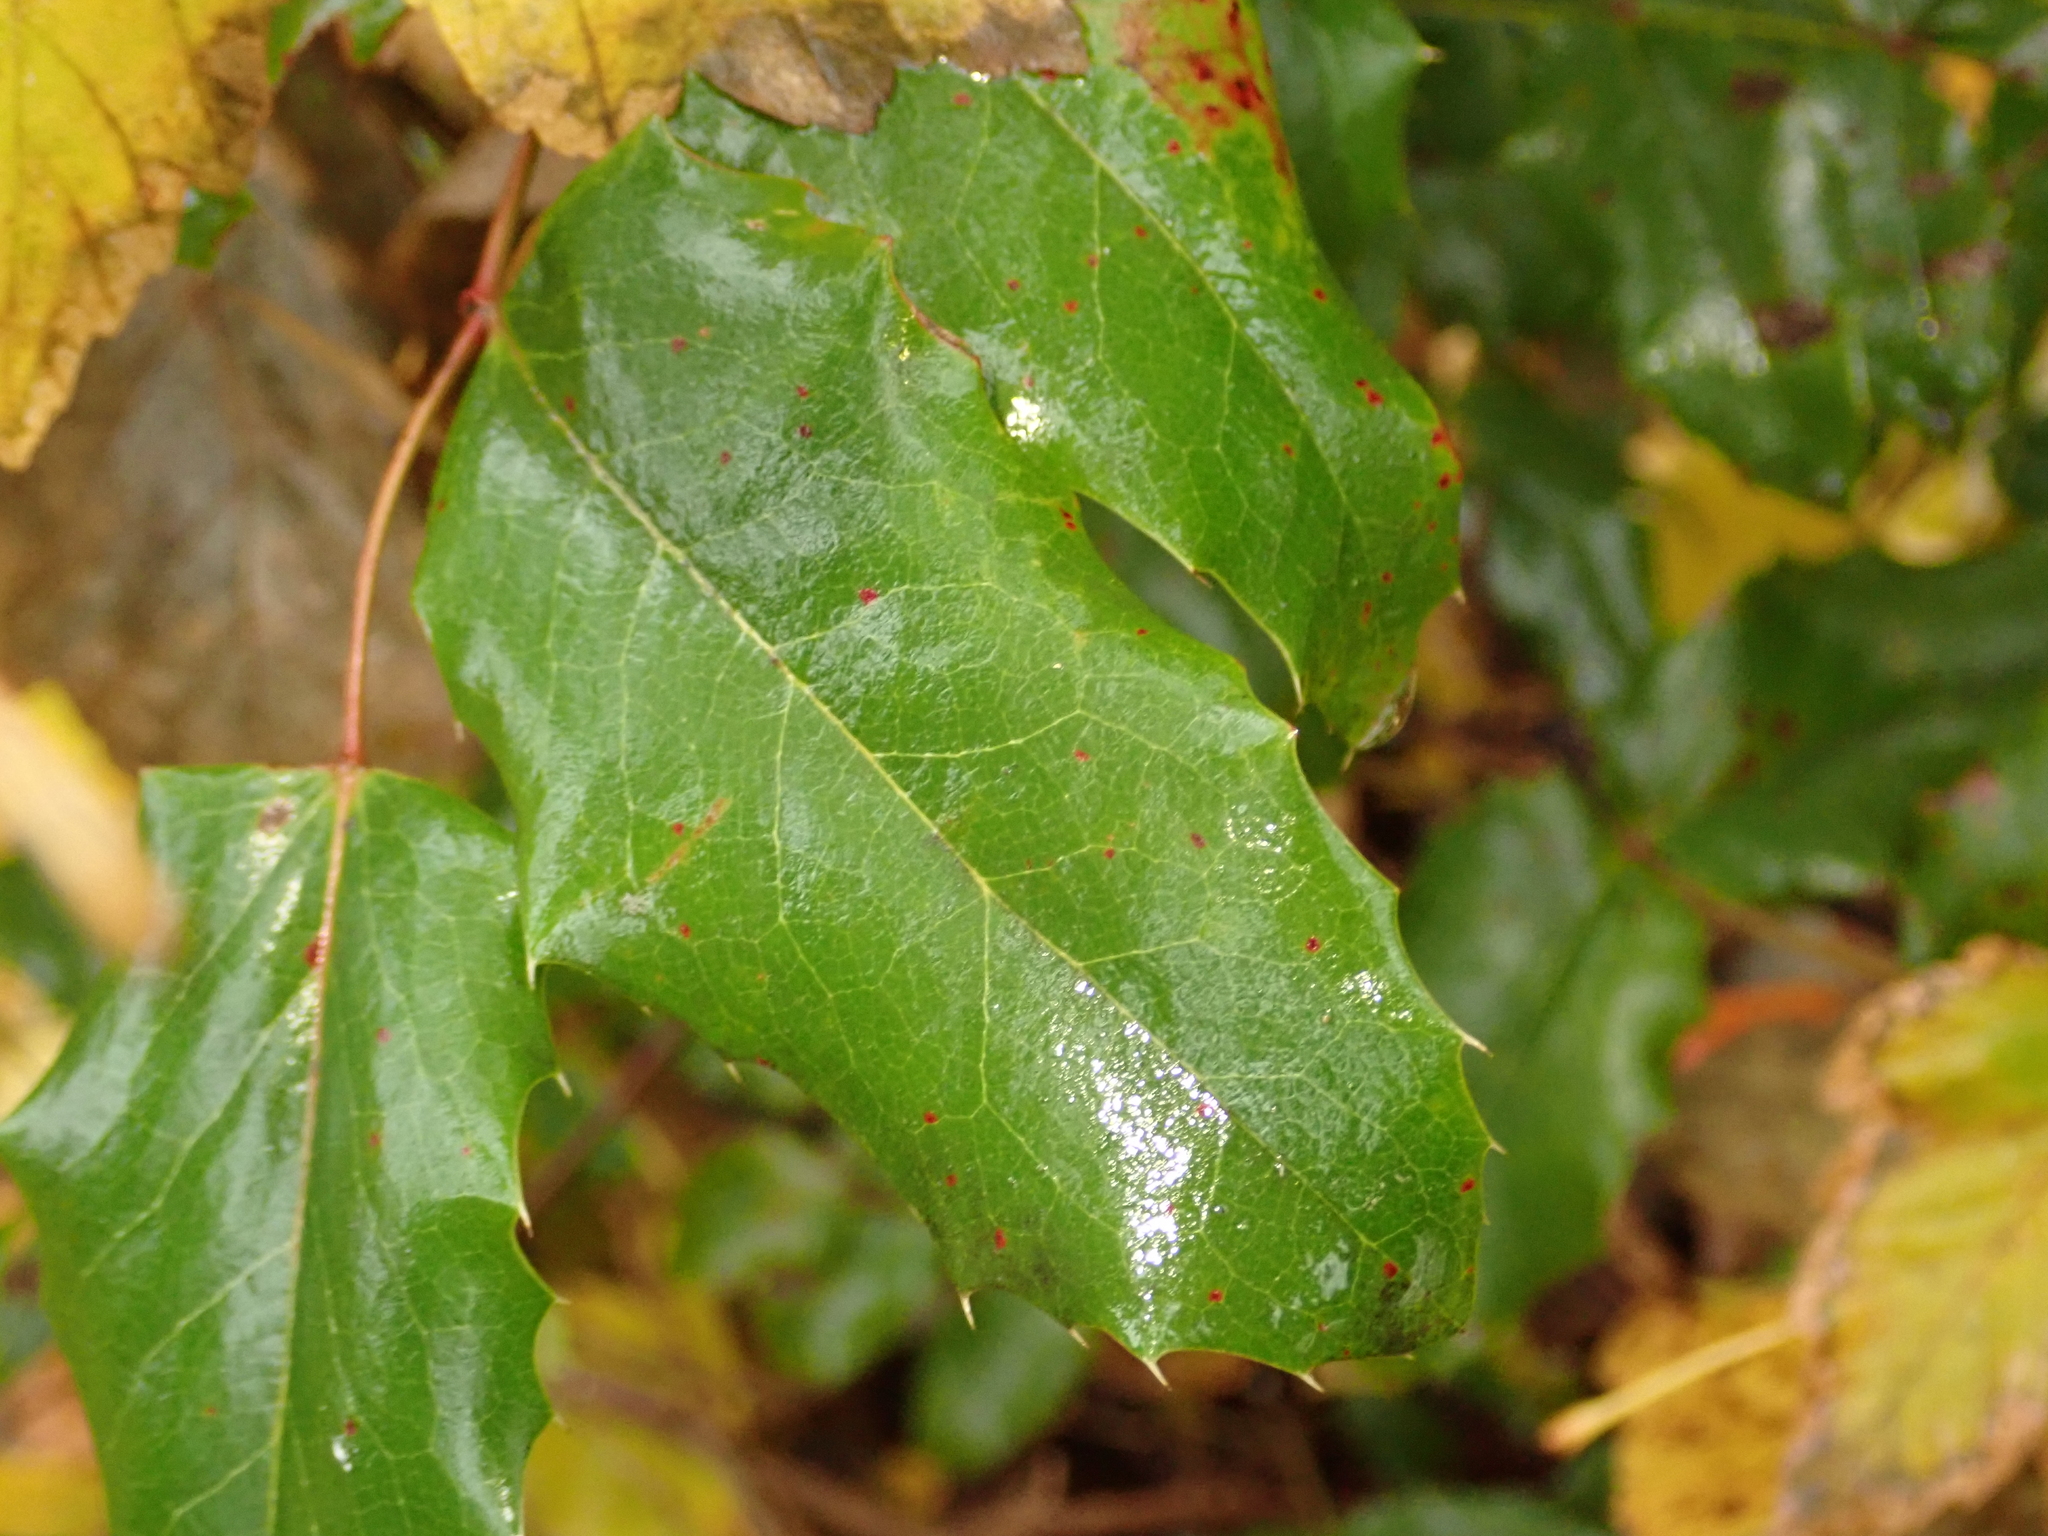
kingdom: Plantae
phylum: Tracheophyta
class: Magnoliopsida
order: Ranunculales
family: Berberidaceae
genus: Mahonia
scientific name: Mahonia aquifolium
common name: Oregon-grape
